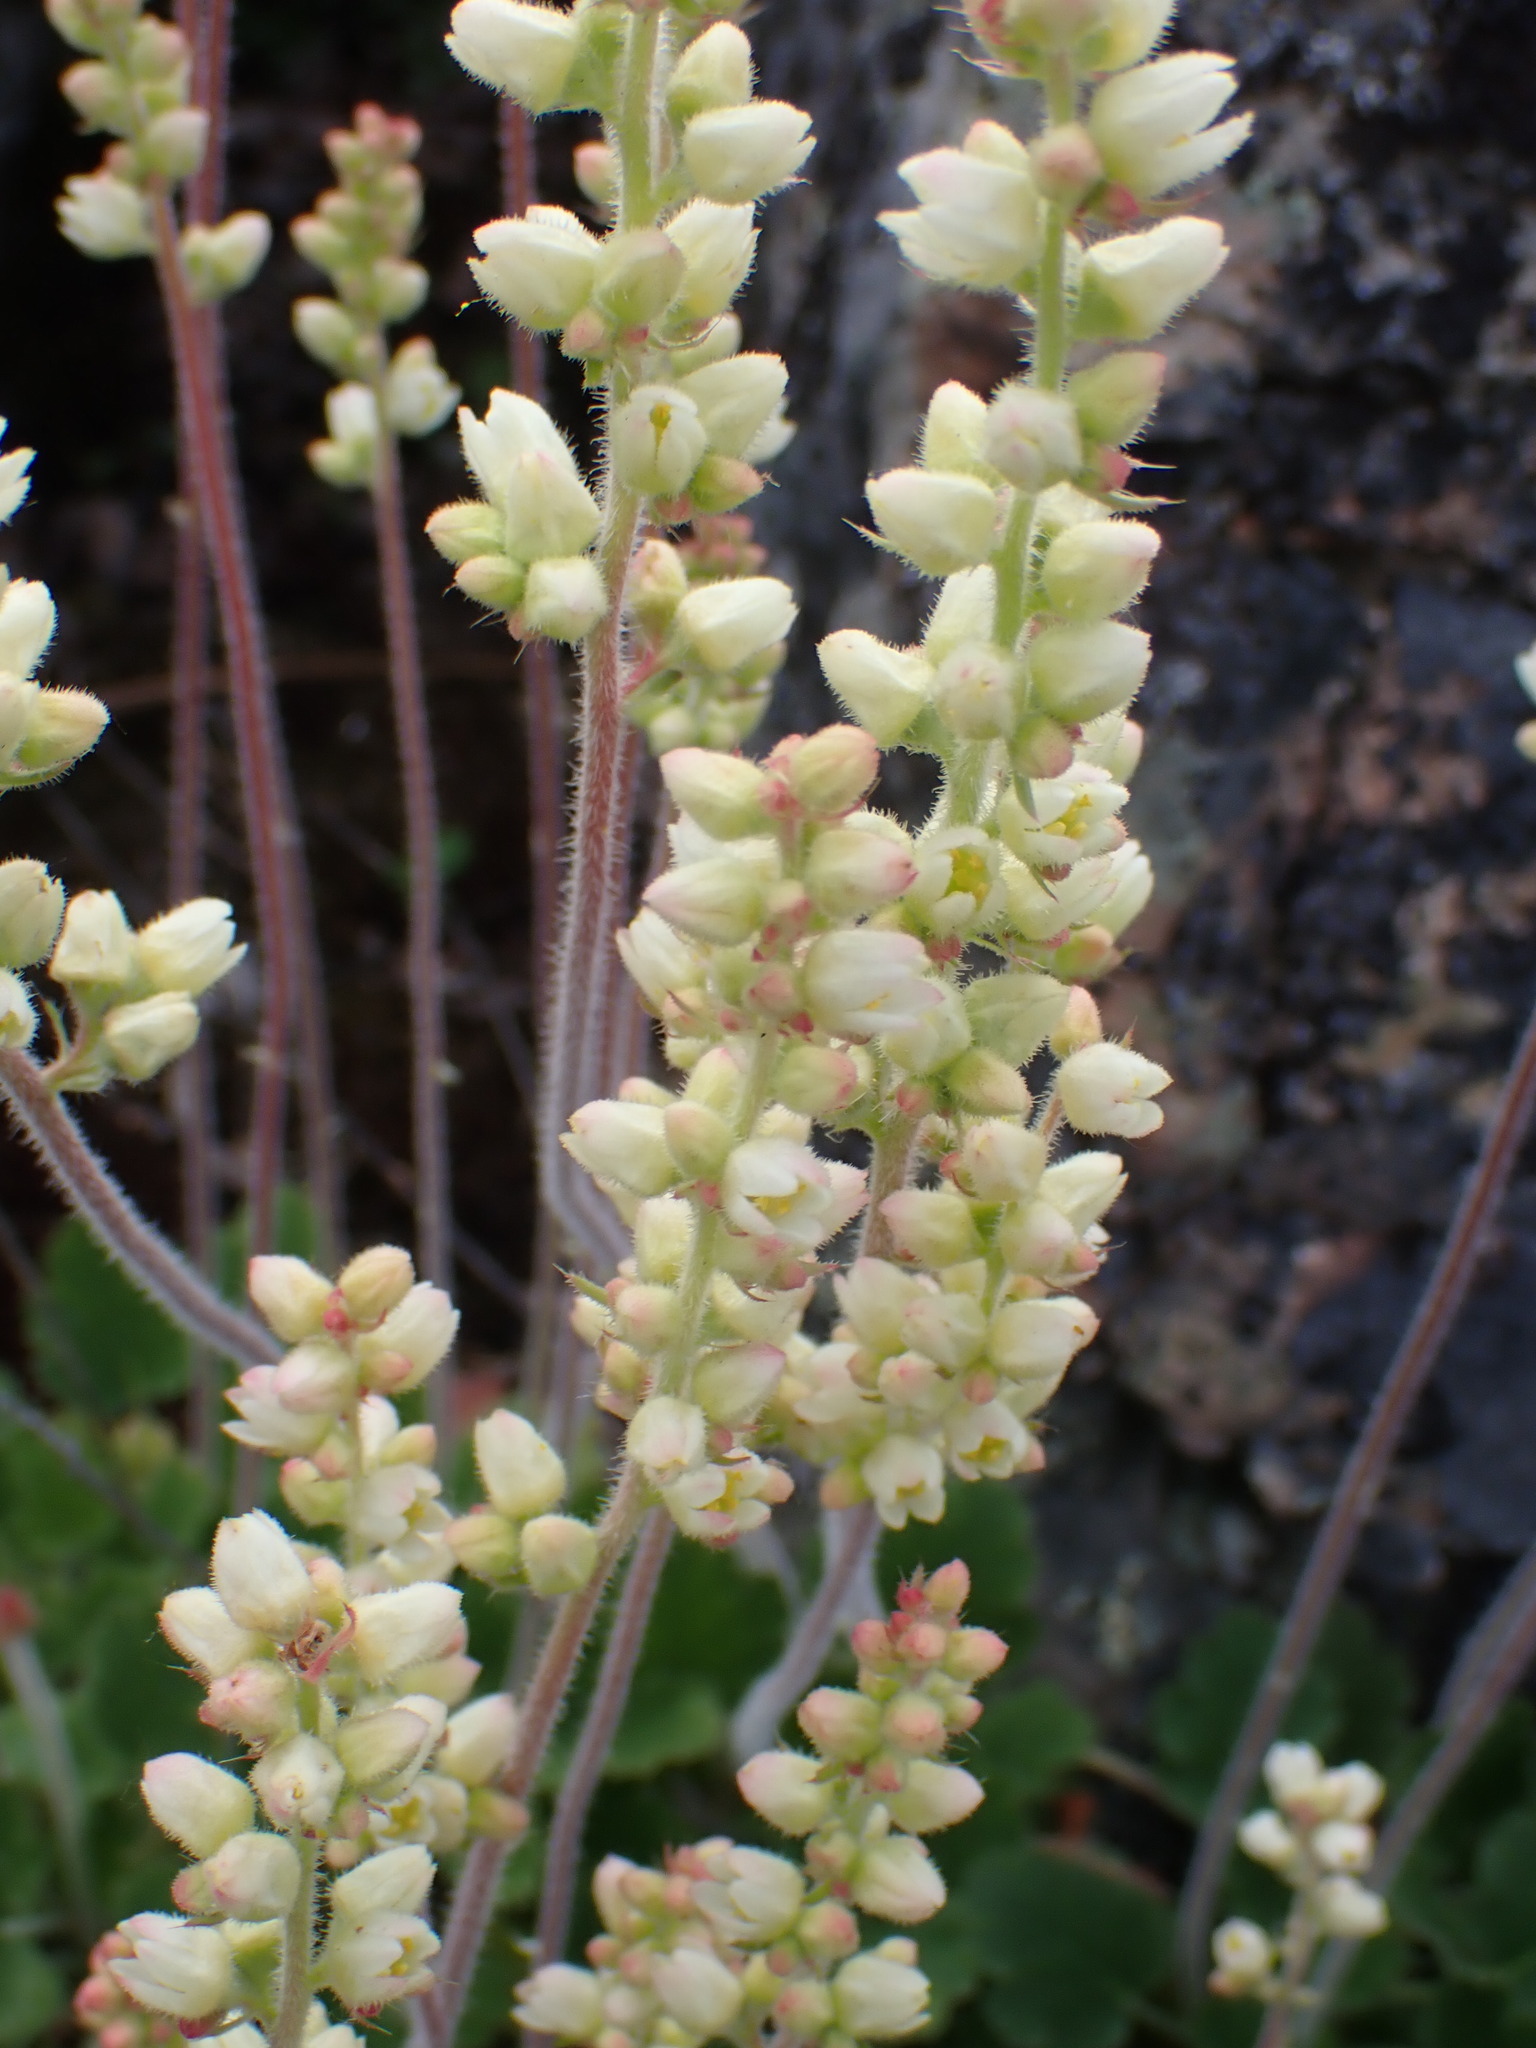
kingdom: Plantae
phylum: Tracheophyta
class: Magnoliopsida
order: Saxifragales
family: Saxifragaceae
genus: Heuchera
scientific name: Heuchera cylindrica
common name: Mat alumroot
